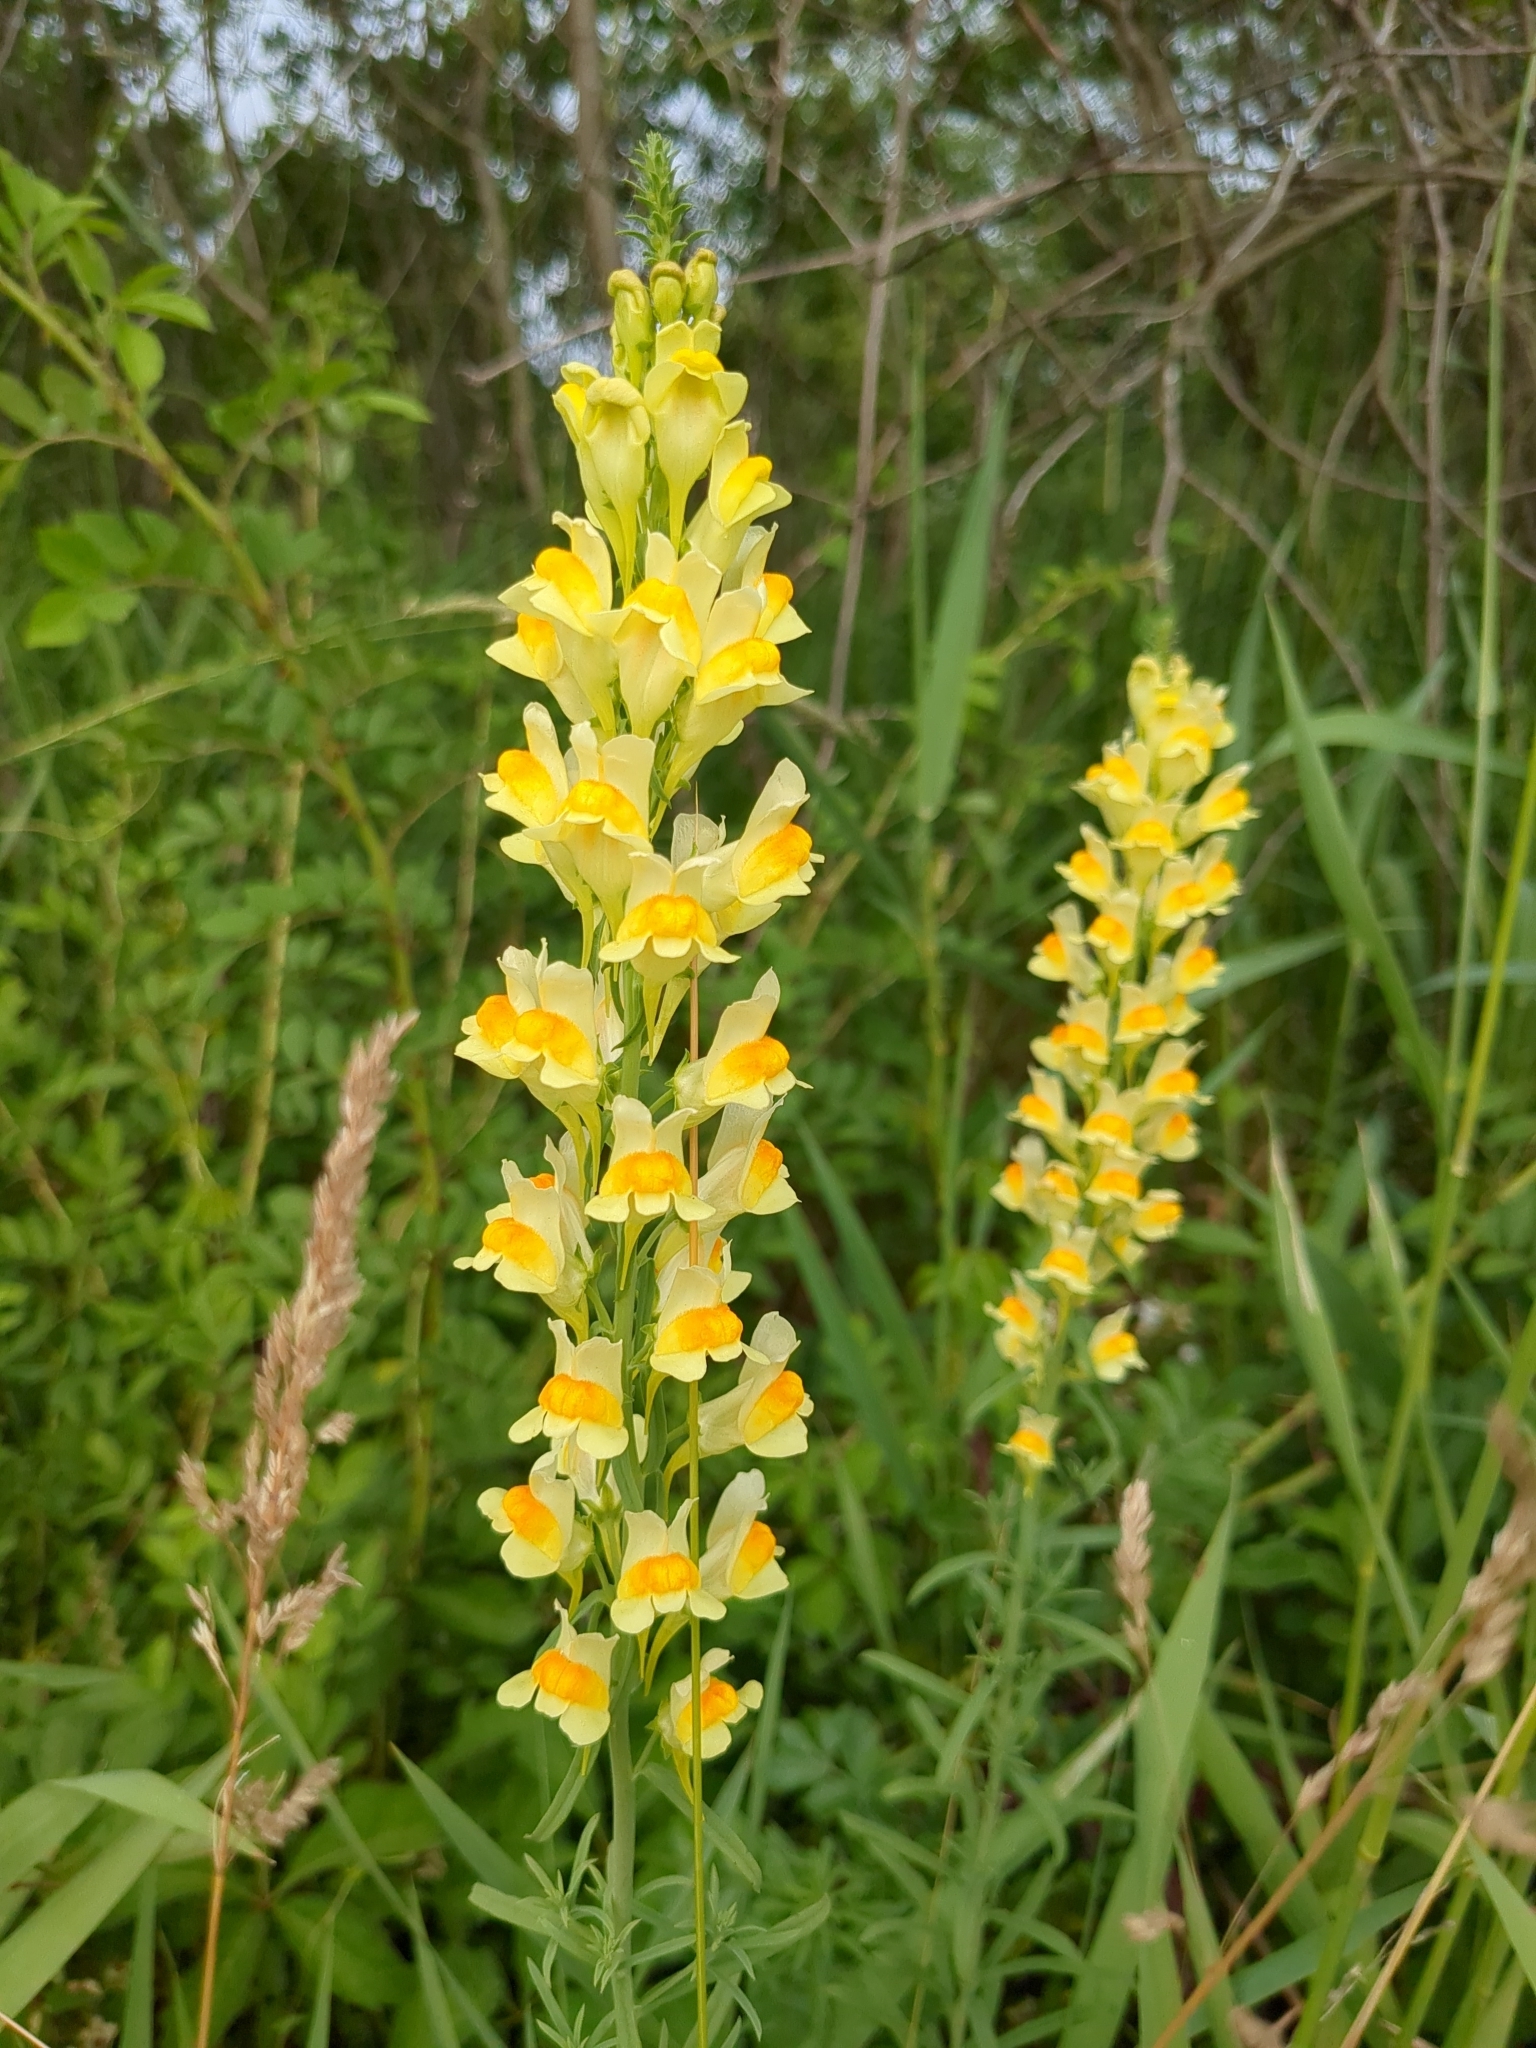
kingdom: Plantae
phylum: Tracheophyta
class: Magnoliopsida
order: Lamiales
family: Plantaginaceae
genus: Linaria
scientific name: Linaria vulgaris
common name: Butter and eggs
